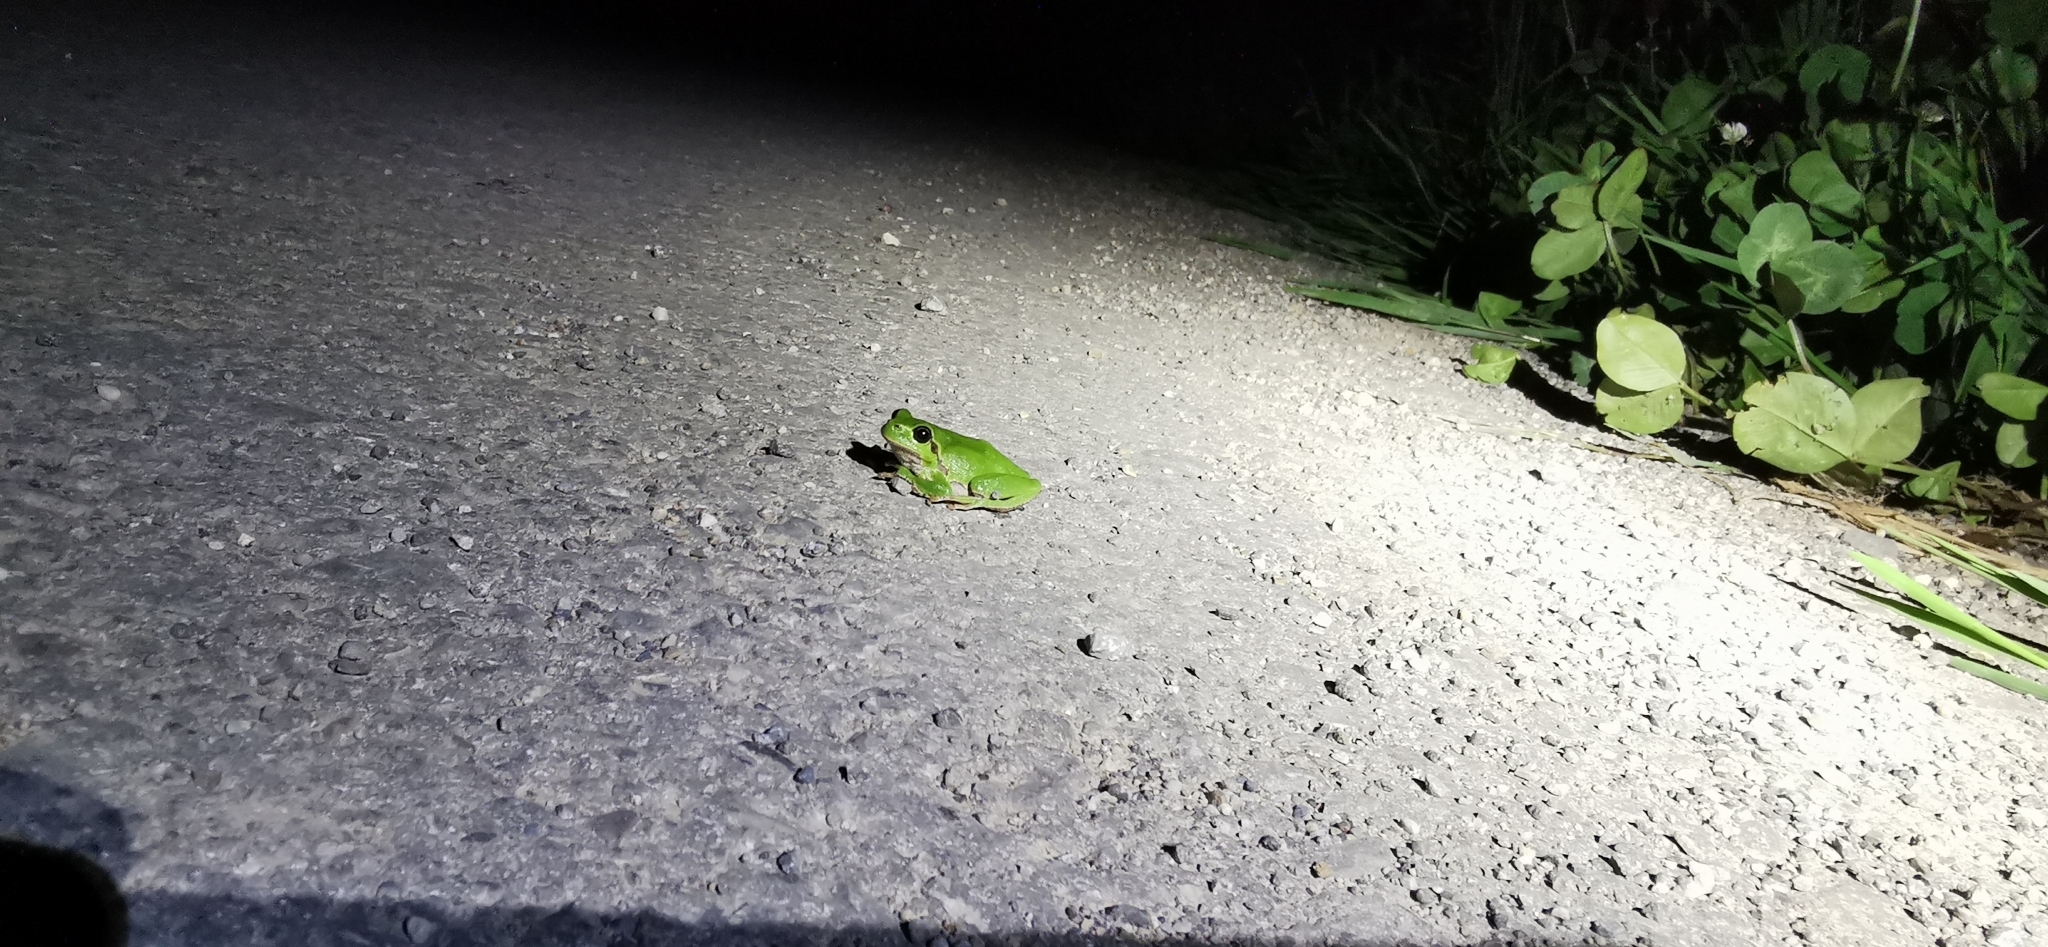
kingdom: Animalia
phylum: Chordata
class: Amphibia
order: Anura
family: Hylidae
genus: Hyla
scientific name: Hyla arborea
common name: Common tree frog
